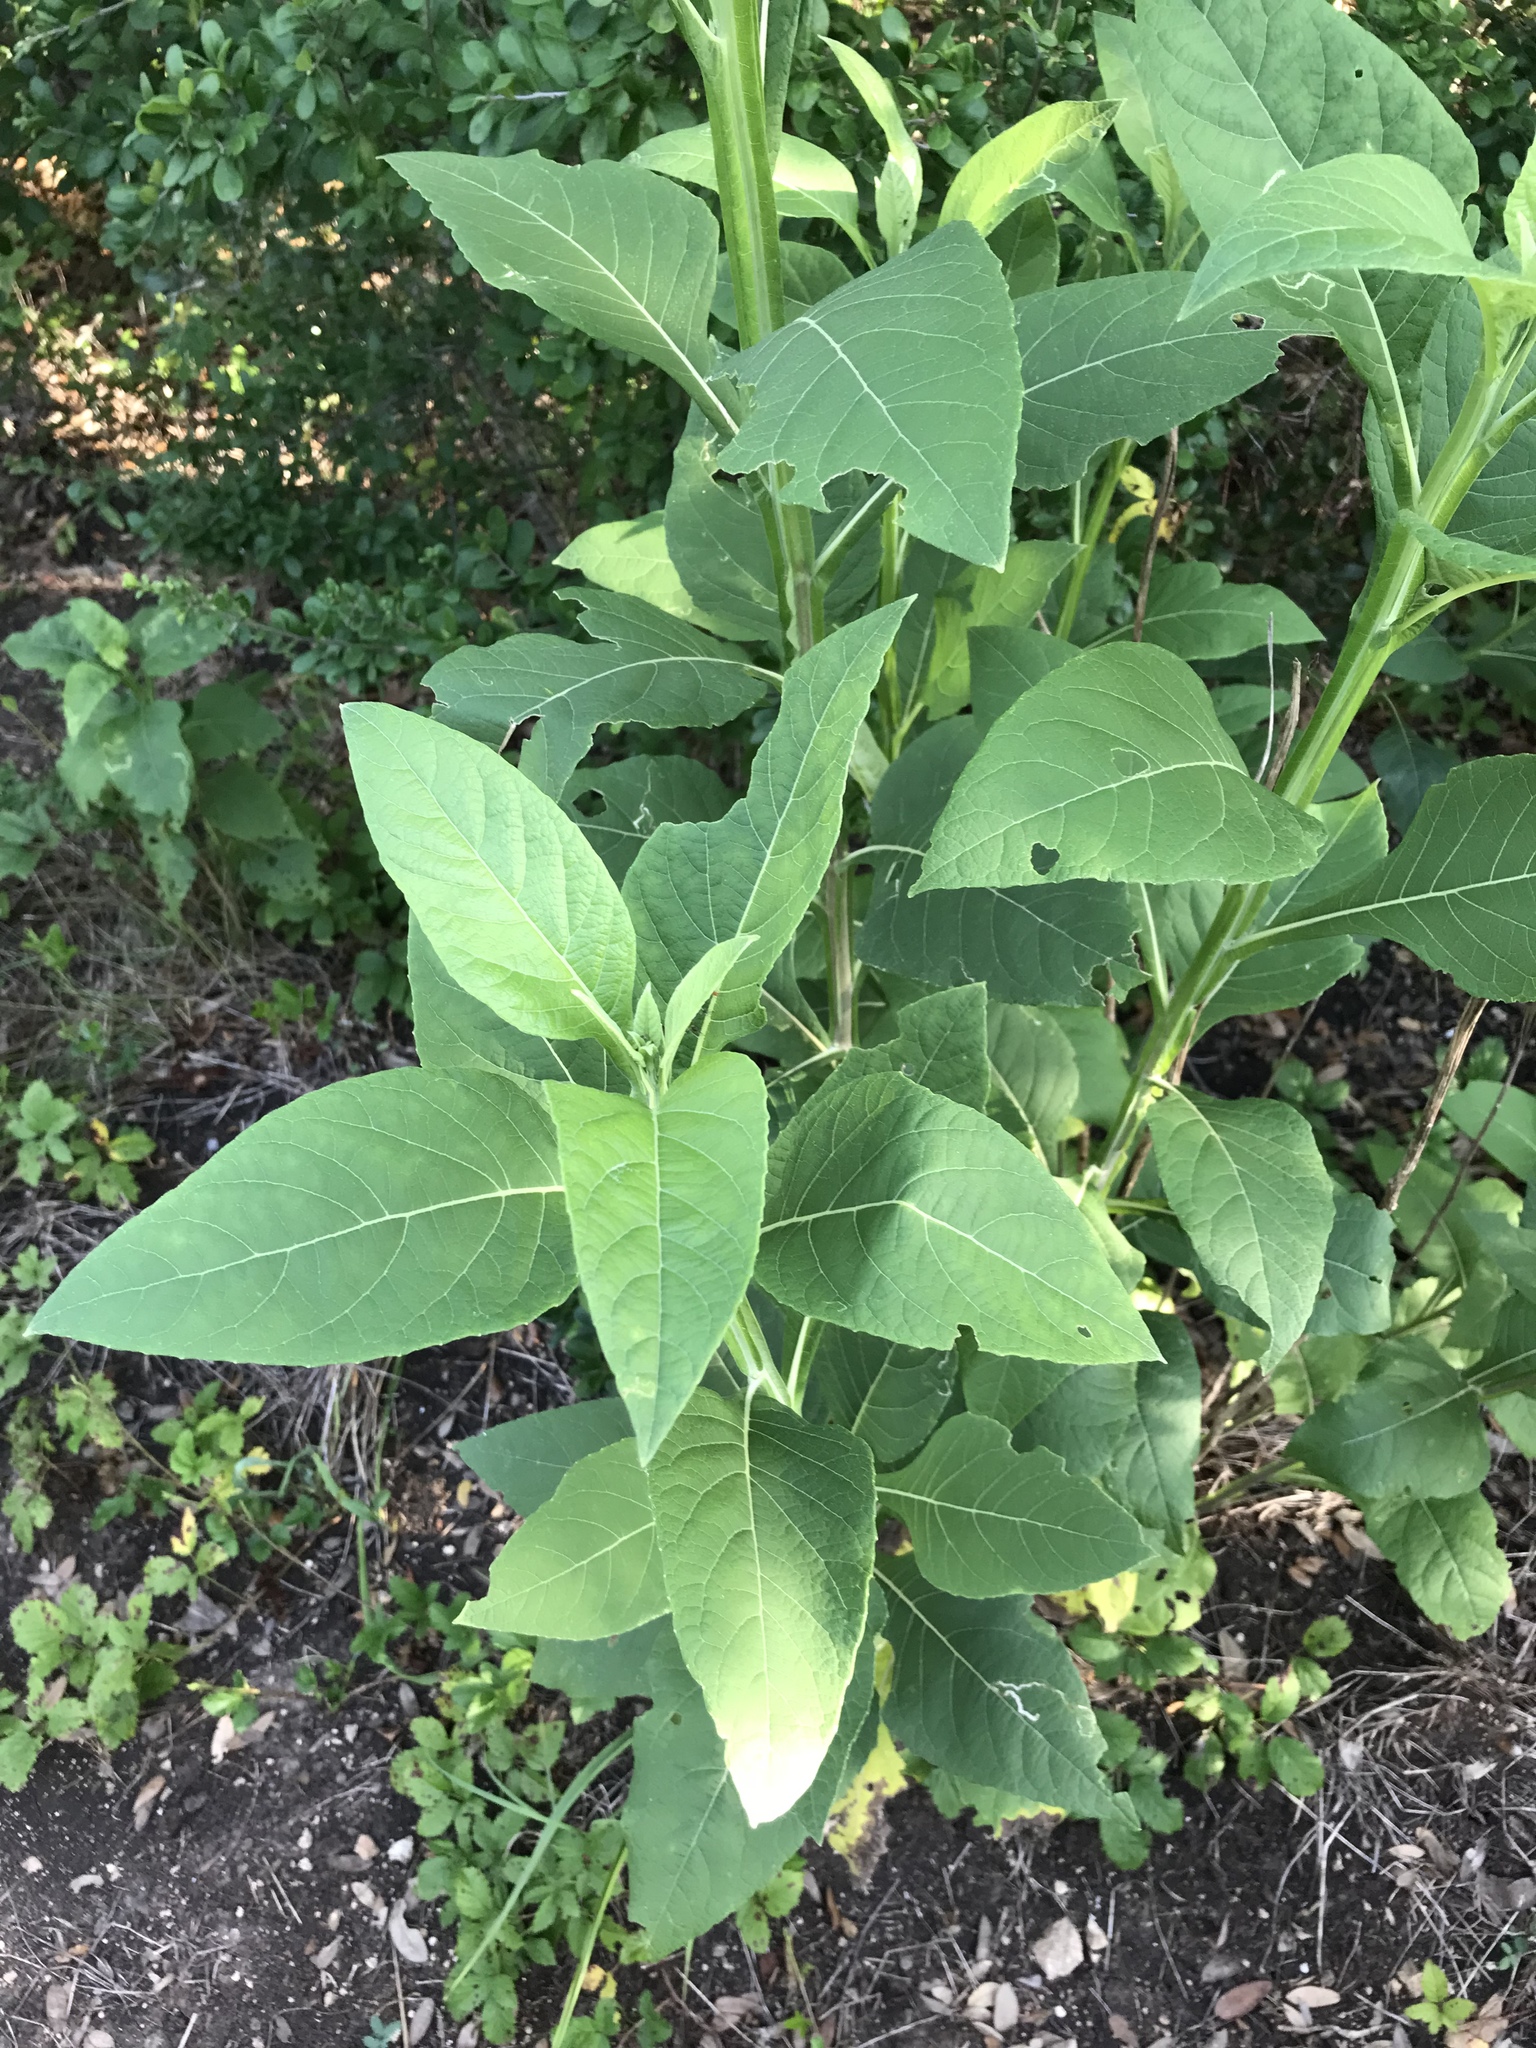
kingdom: Plantae
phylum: Tracheophyta
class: Magnoliopsida
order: Asterales
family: Asteraceae
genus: Verbesina
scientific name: Verbesina virginica
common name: Frostweed
